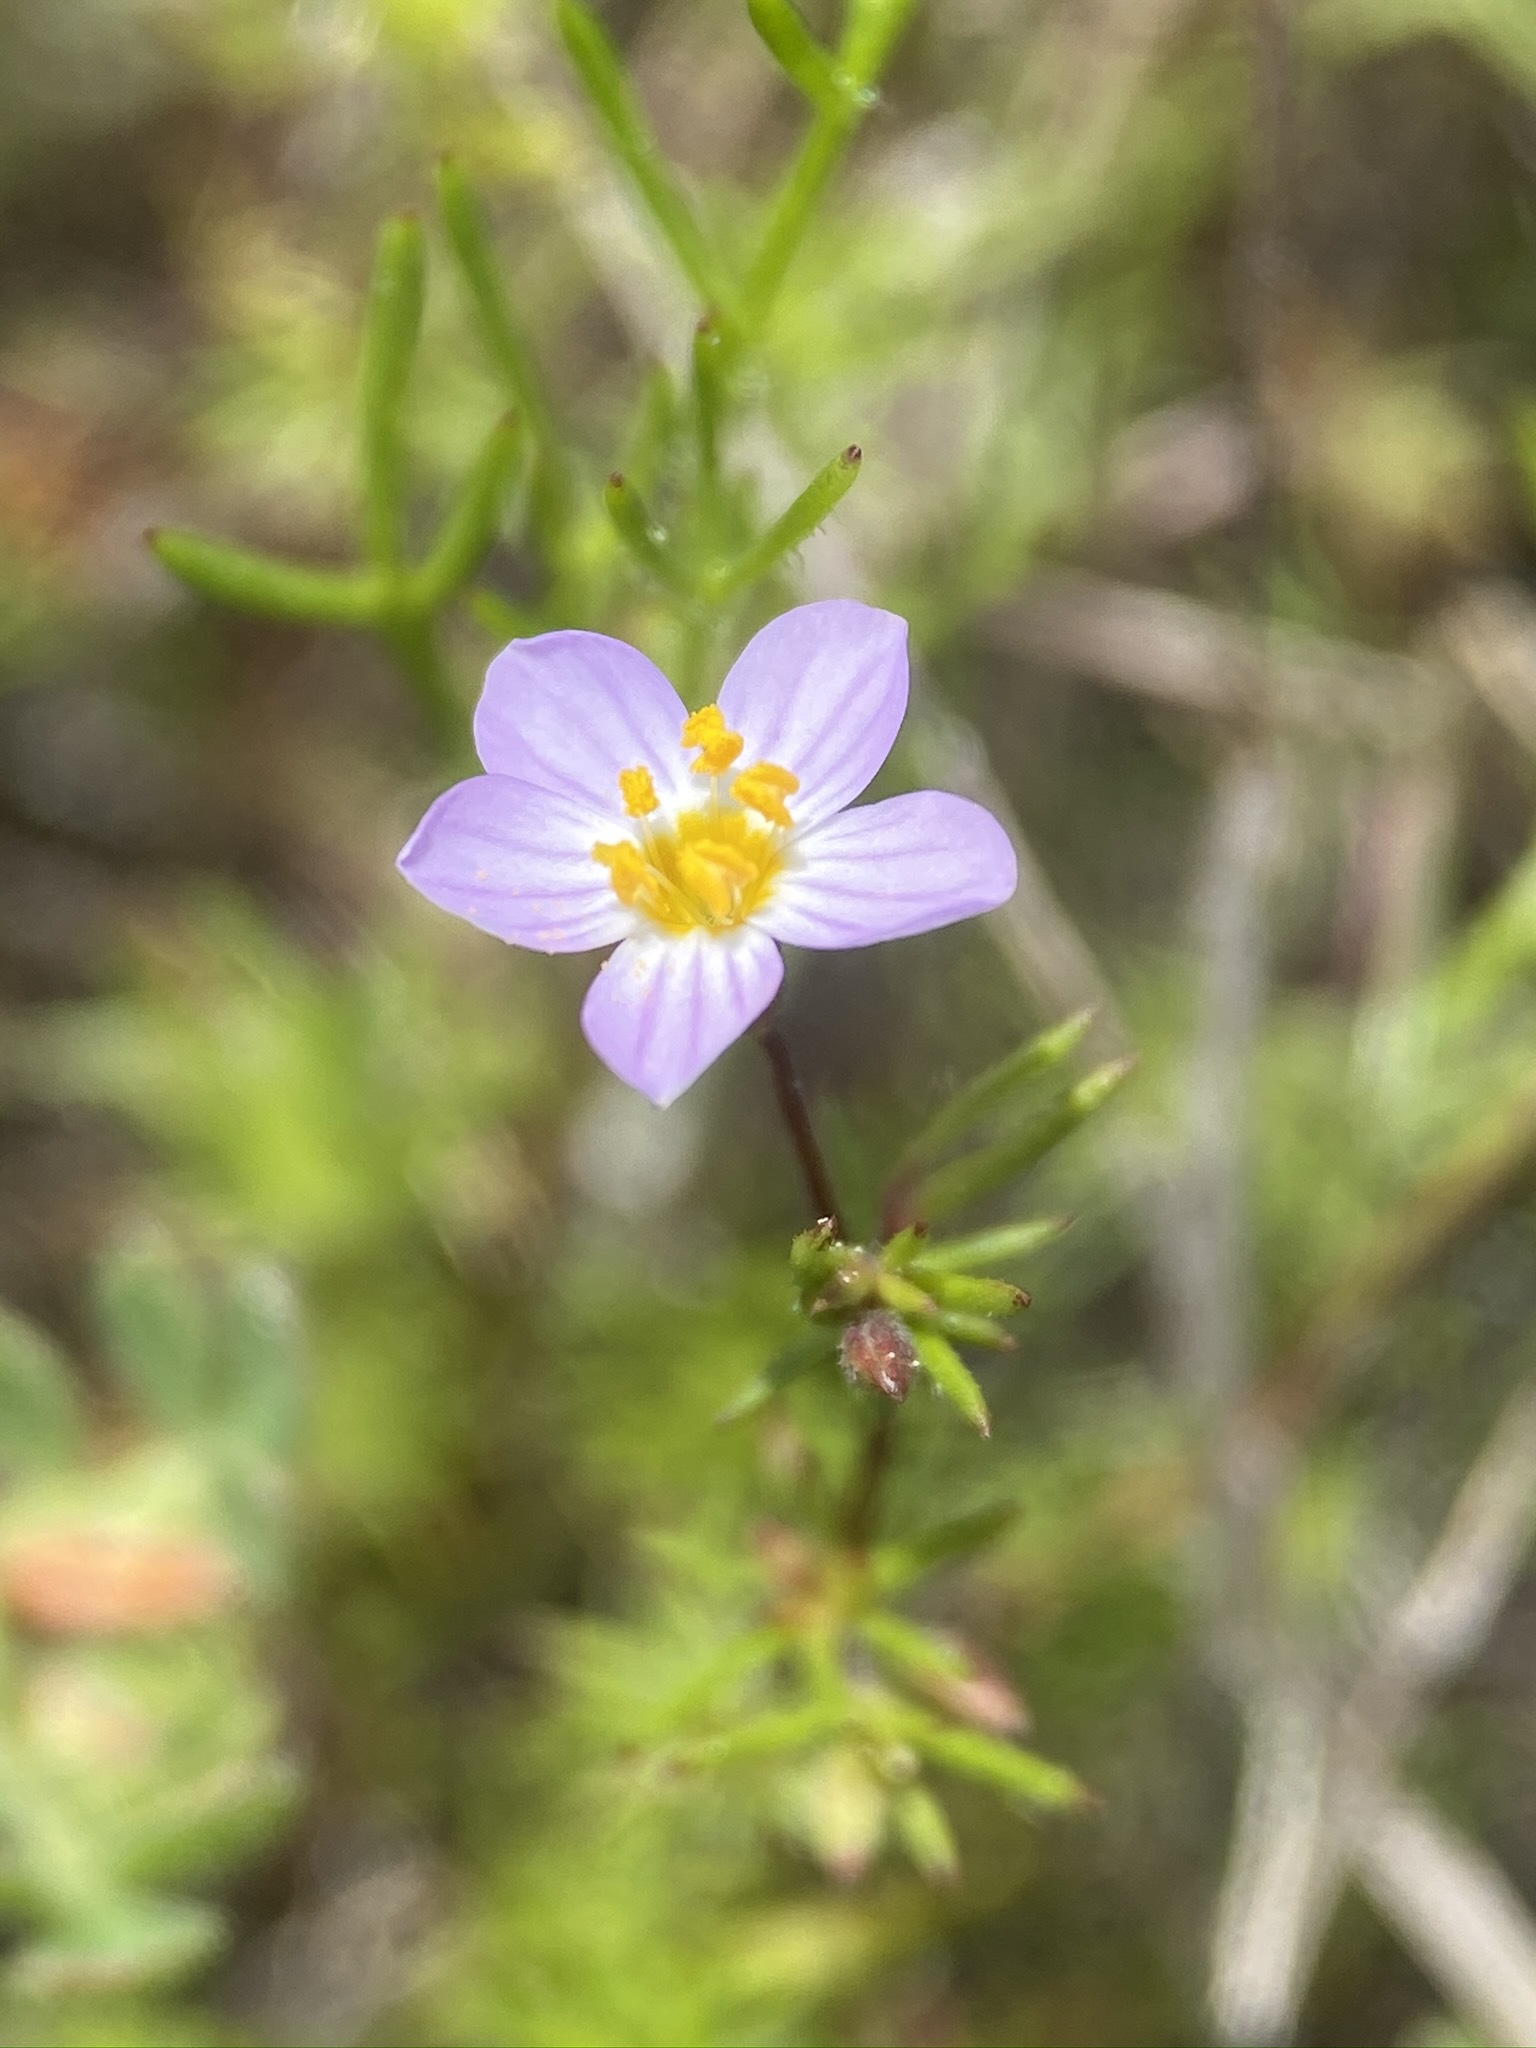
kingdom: Plantae
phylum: Tracheophyta
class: Magnoliopsida
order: Ericales
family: Polemoniaceae
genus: Leptosiphon
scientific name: Leptosiphon filipes
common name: Thread linanthus
